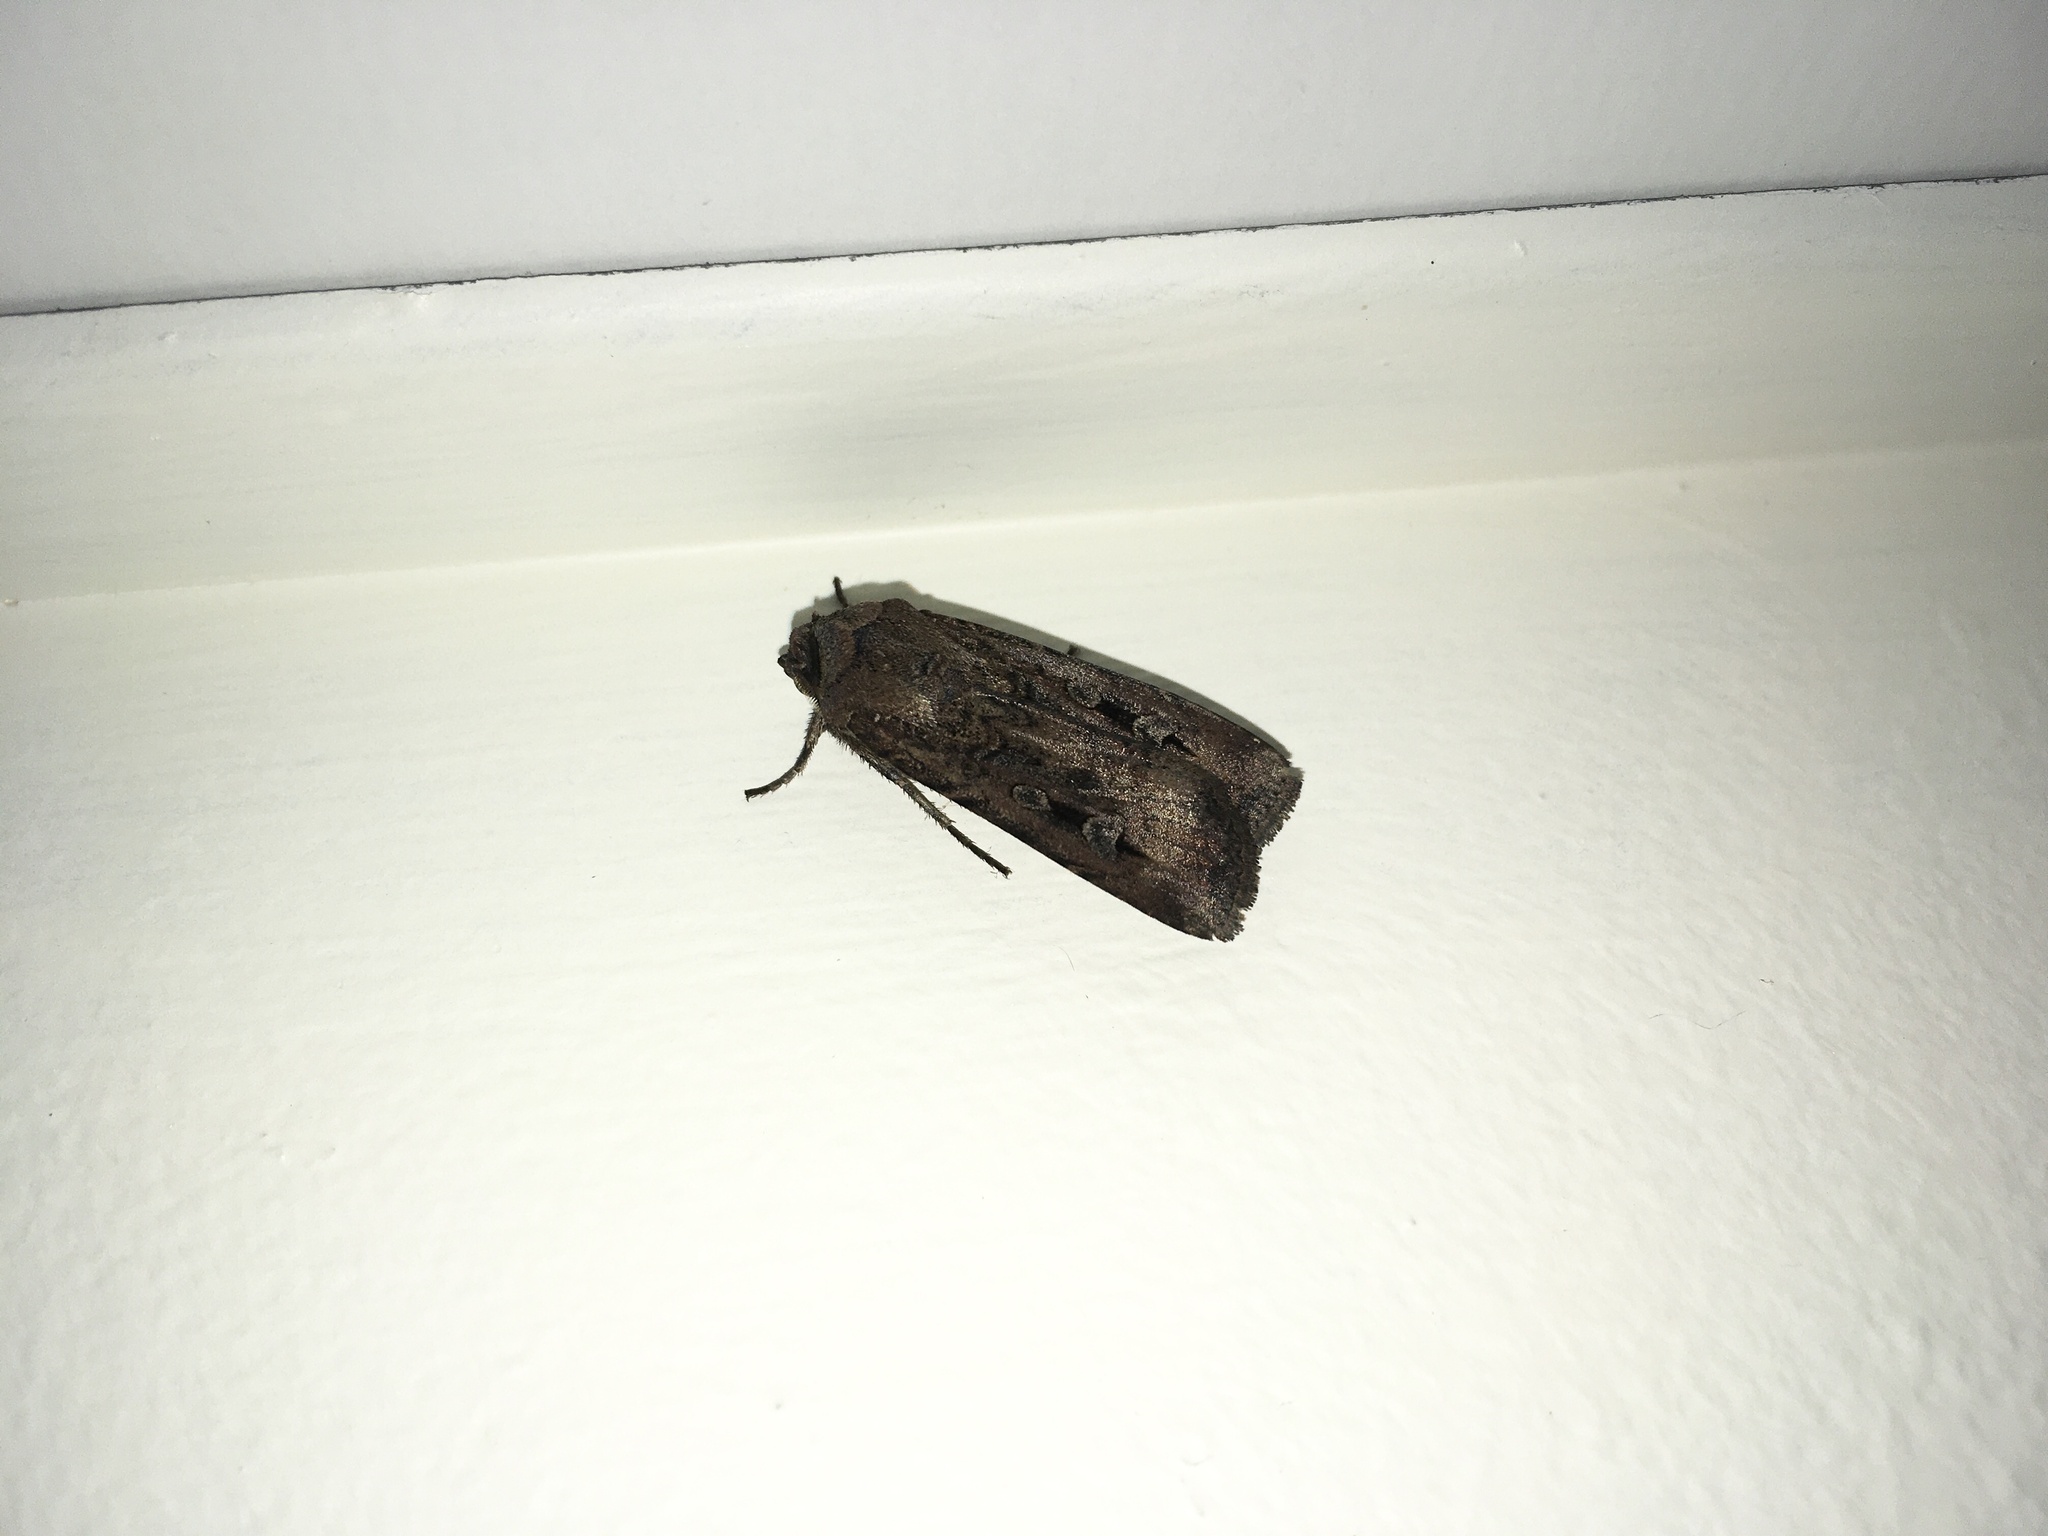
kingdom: Animalia
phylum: Arthropoda
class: Insecta
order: Lepidoptera
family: Noctuidae
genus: Agrotis
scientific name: Agrotis infusa
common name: Bogong moth
